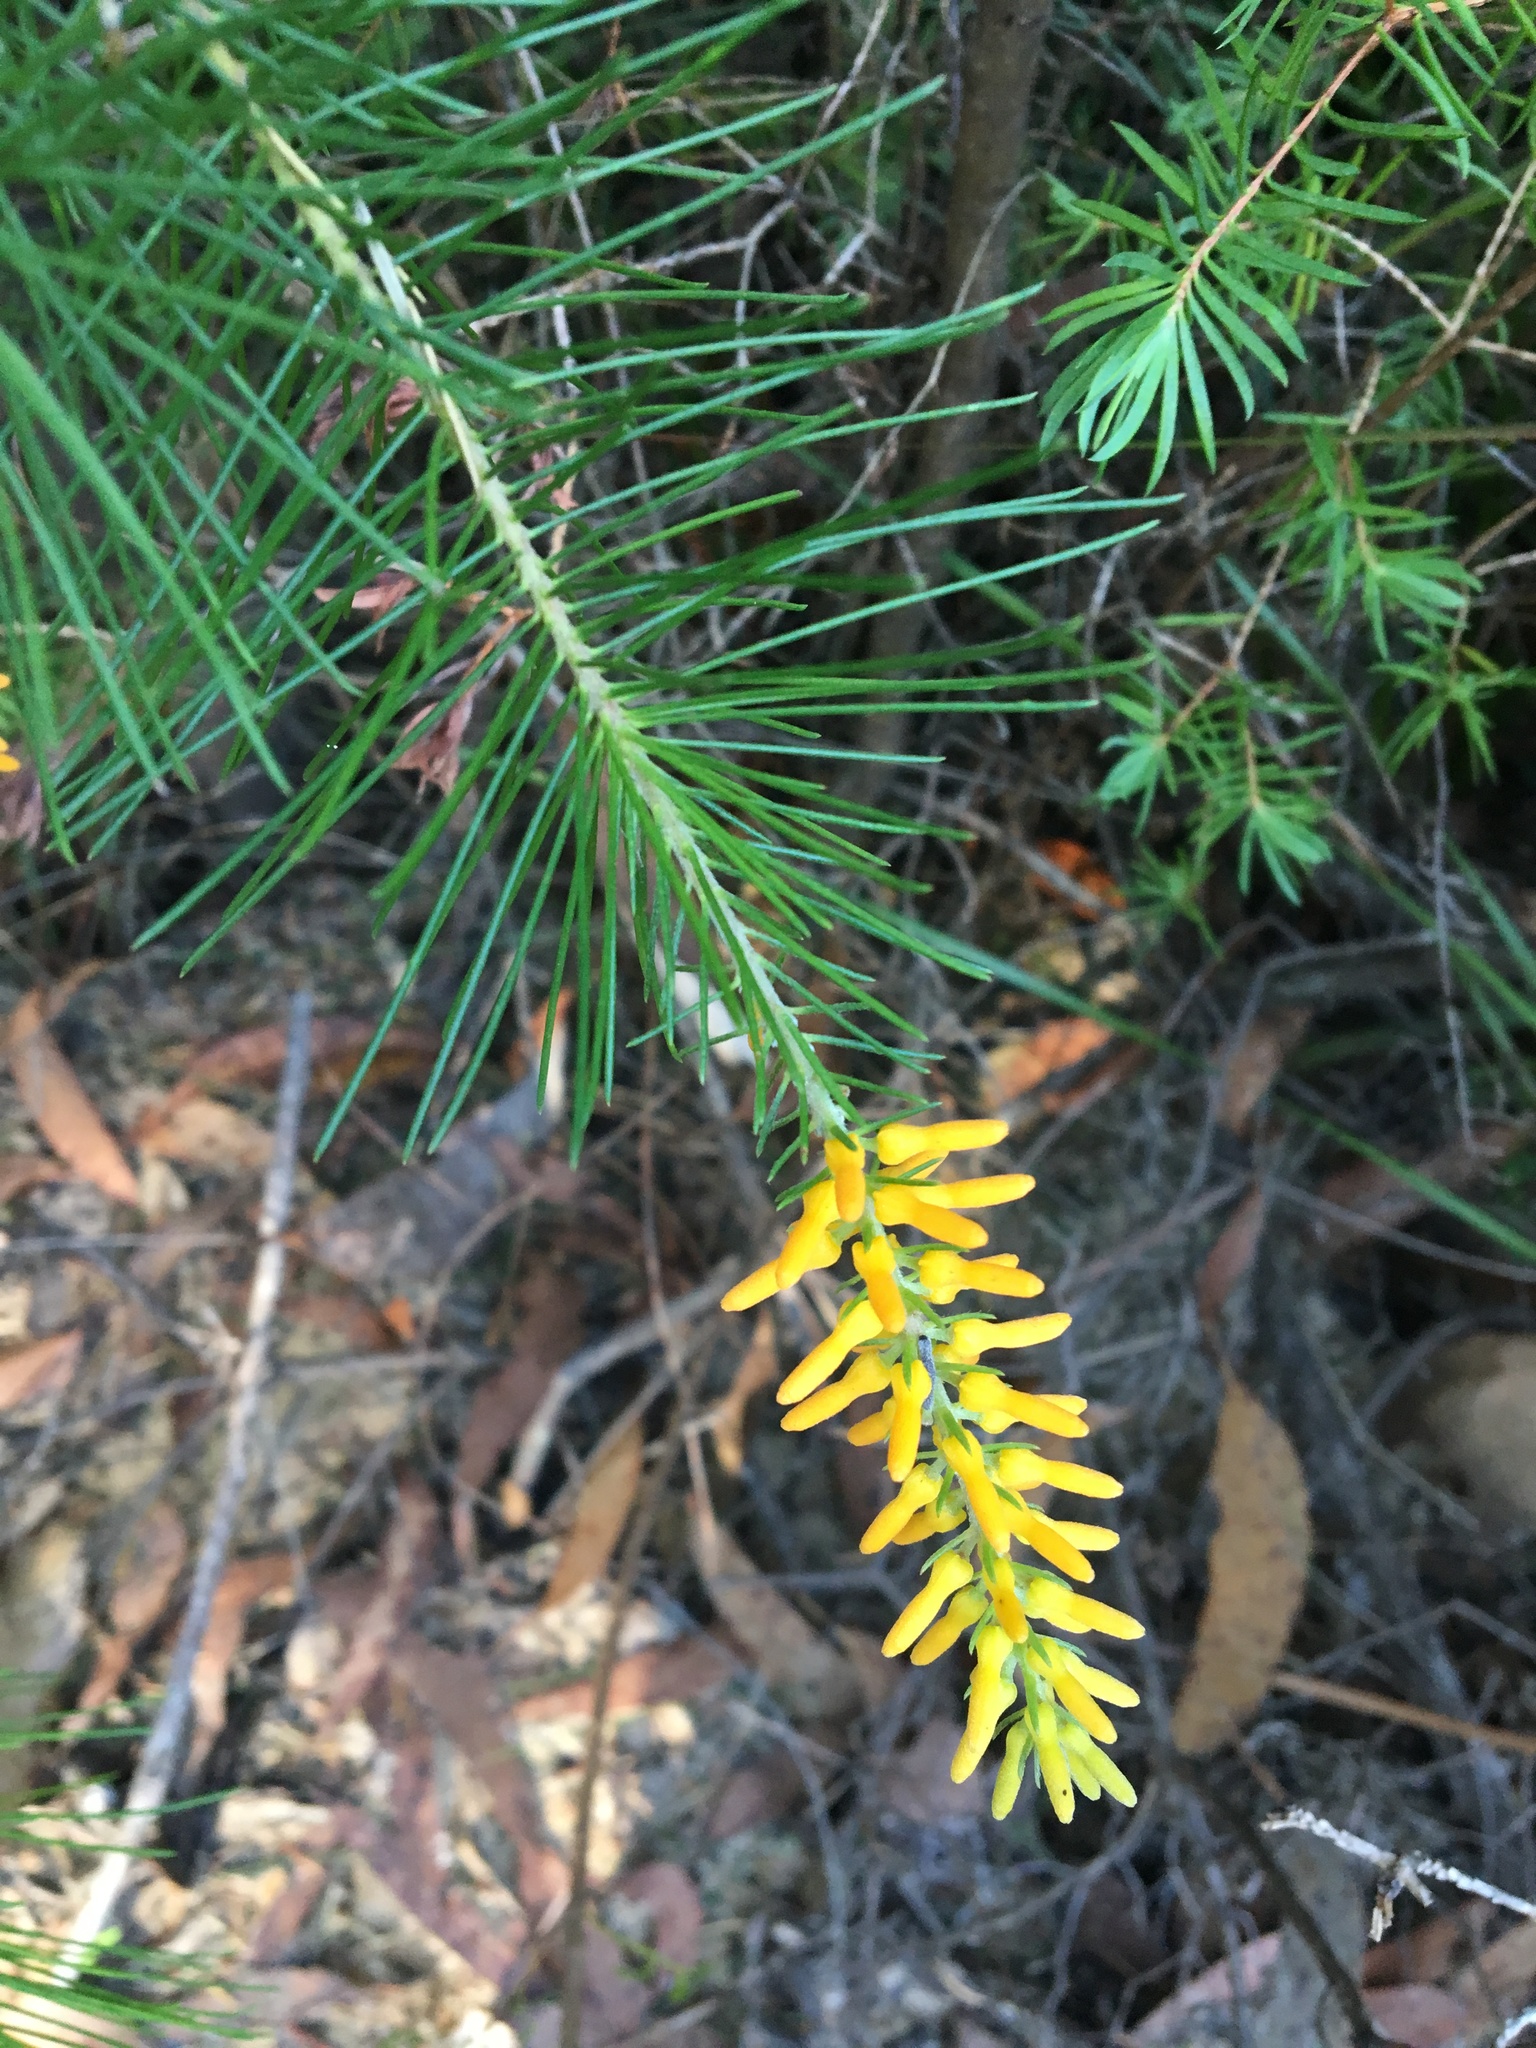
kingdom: Plantae
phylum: Tracheophyta
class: Magnoliopsida
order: Proteales
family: Proteaceae
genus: Persoonia
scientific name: Persoonia pinifolia
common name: Pine-leaf geebung
